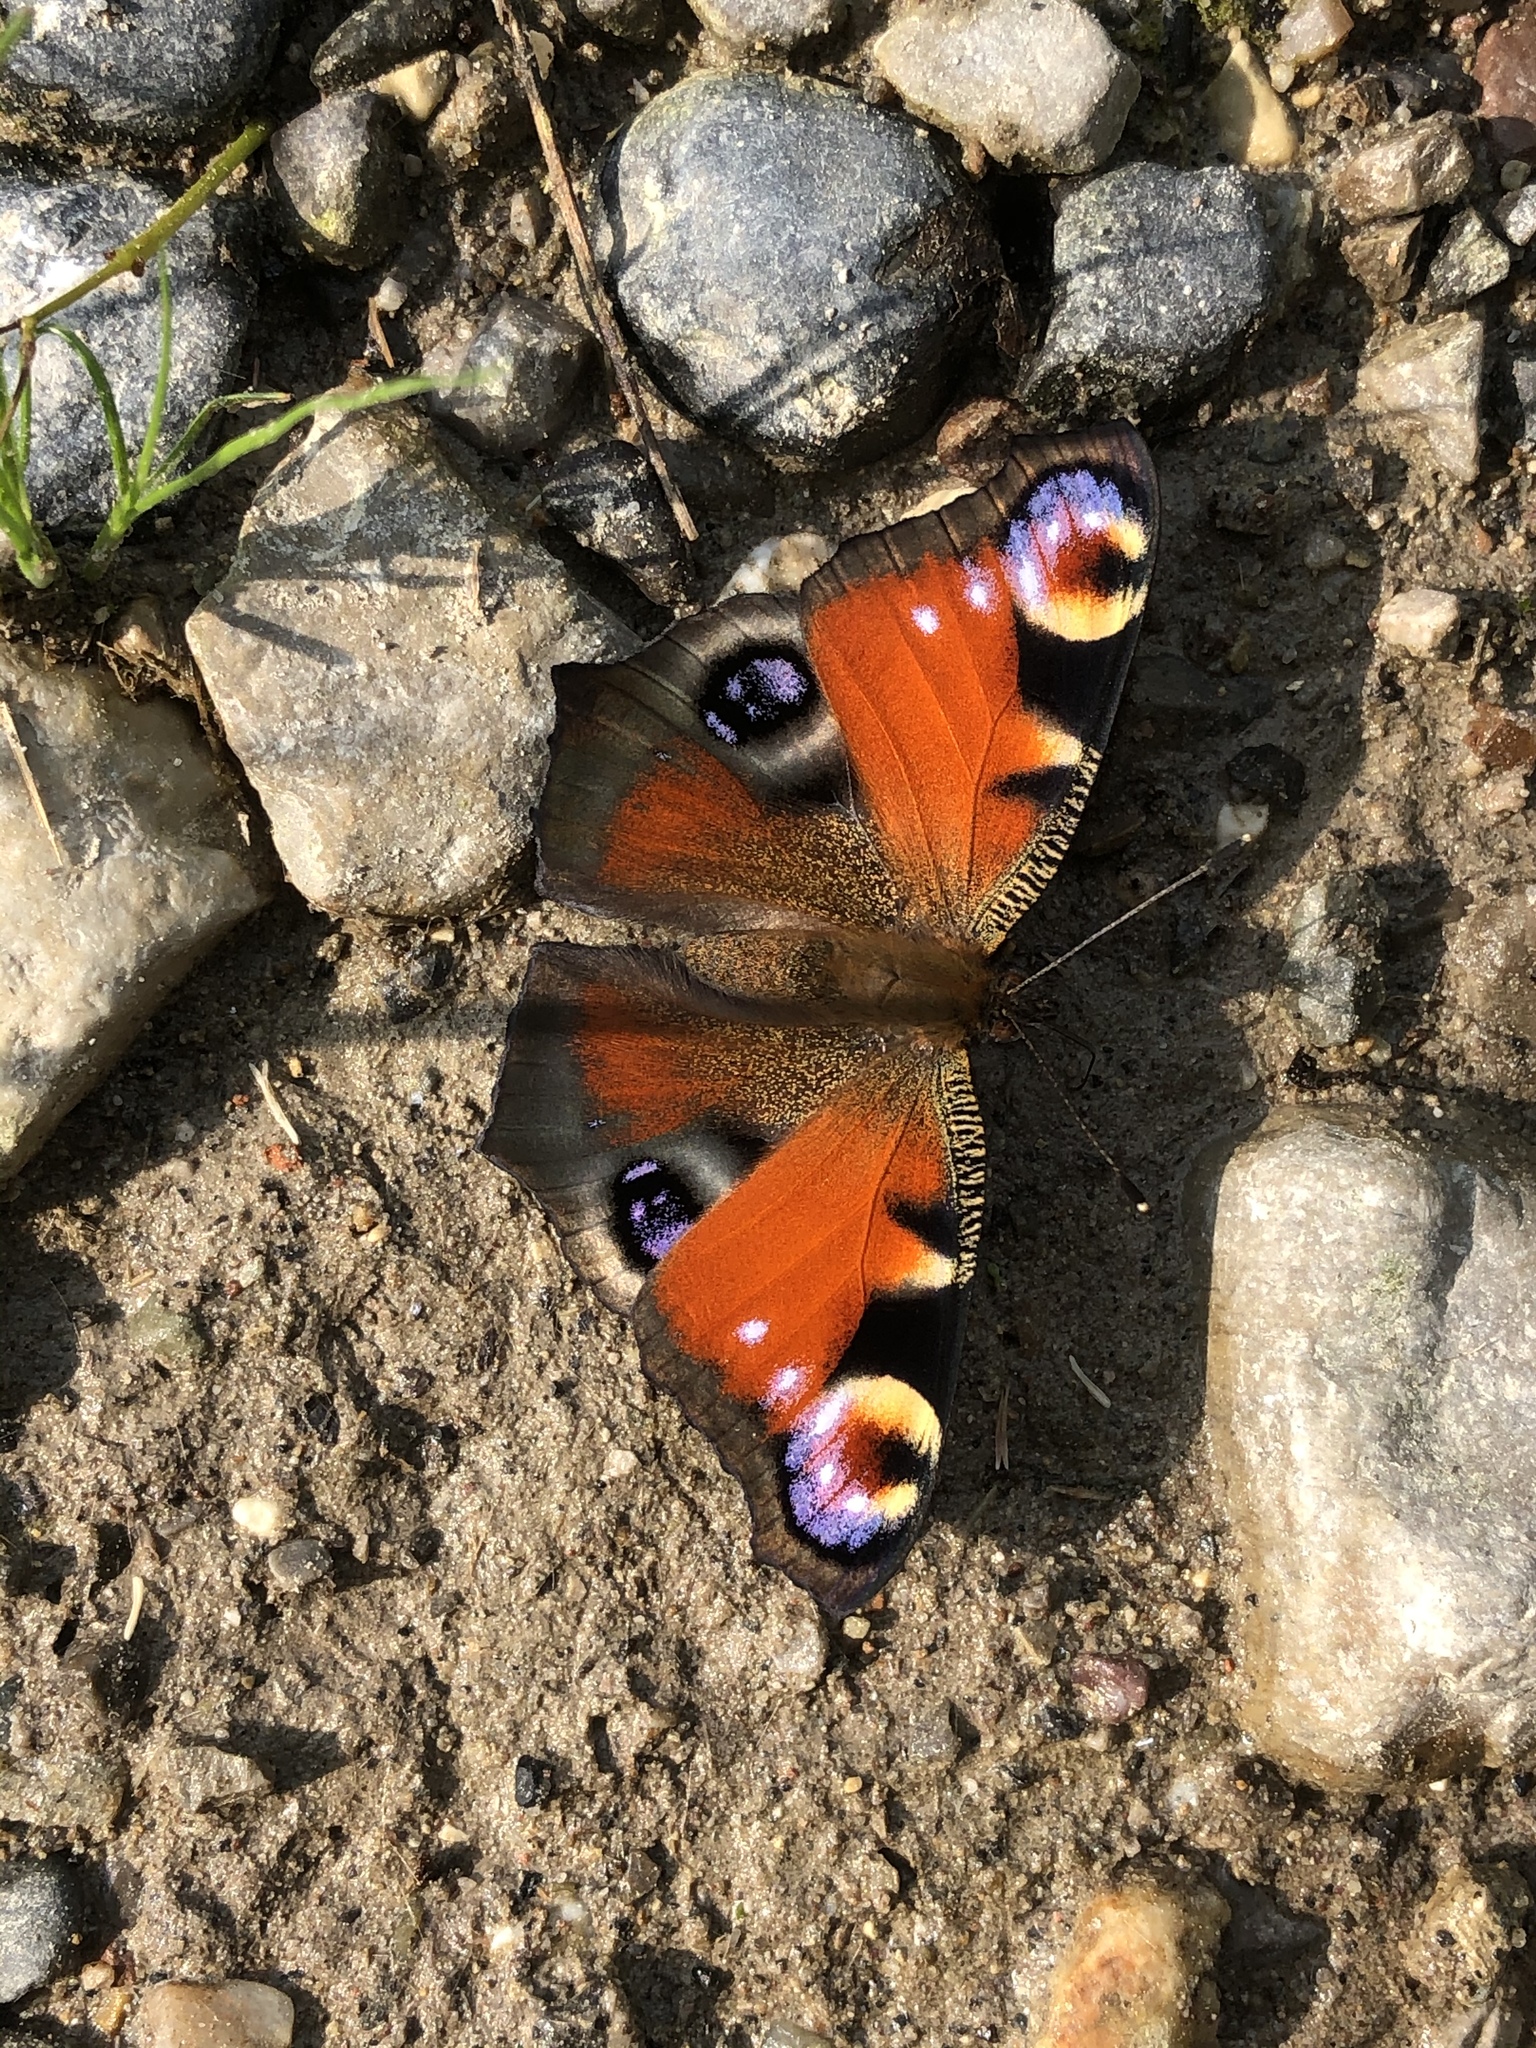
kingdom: Animalia
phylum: Arthropoda
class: Insecta
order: Lepidoptera
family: Nymphalidae
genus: Aglais
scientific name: Aglais io
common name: Peacock
